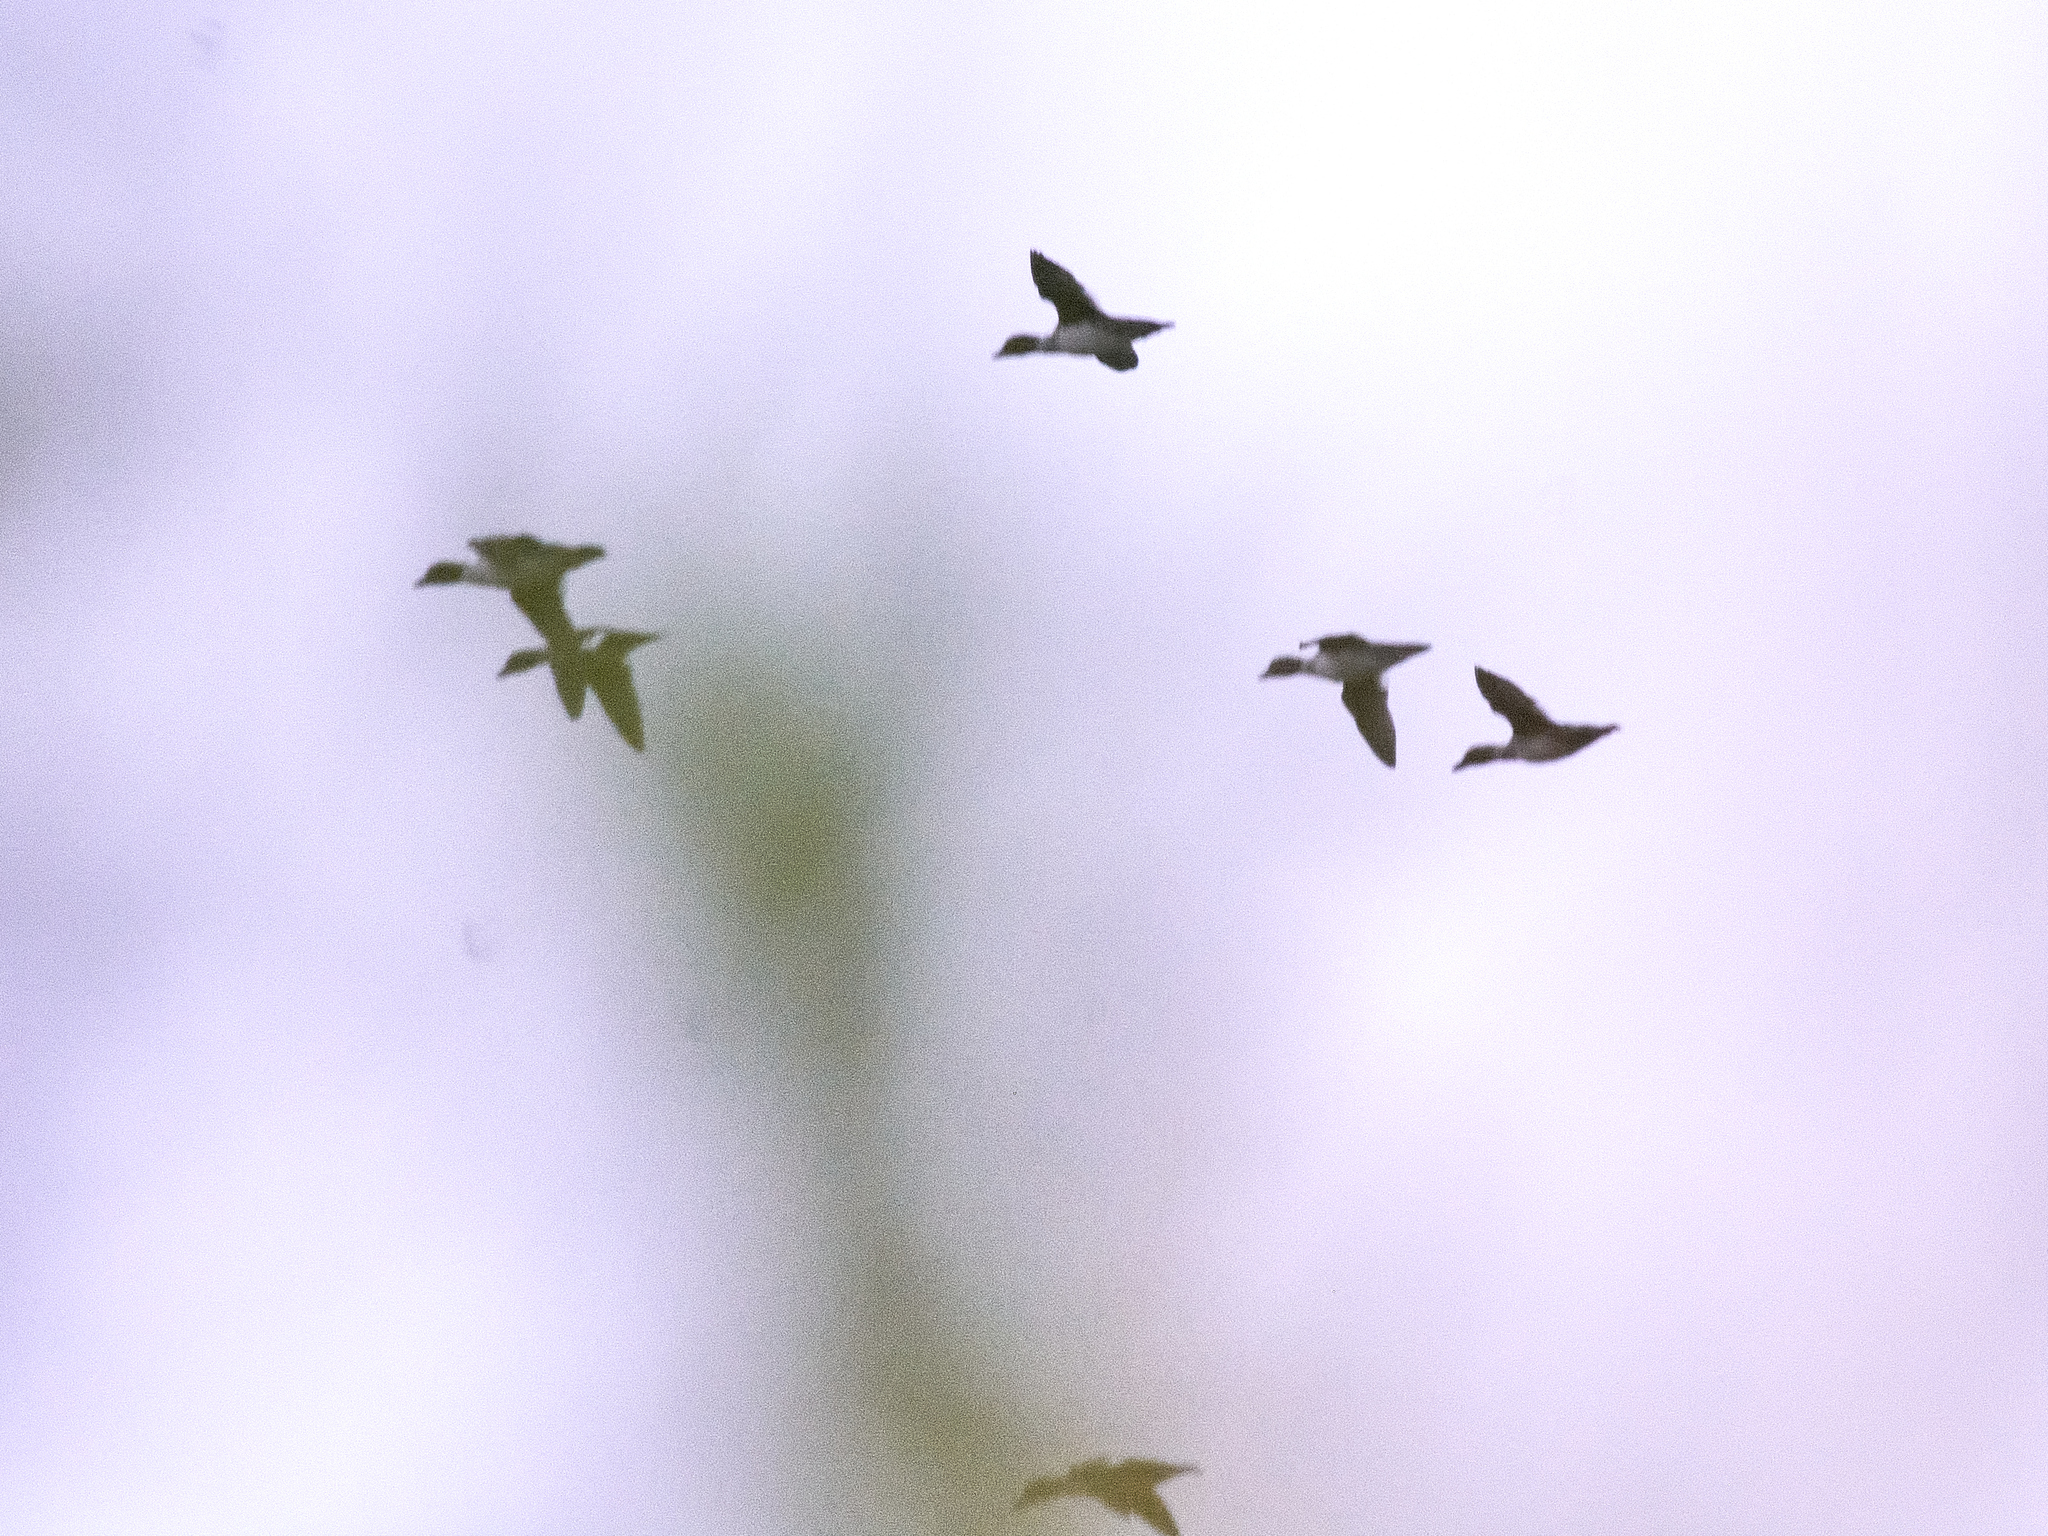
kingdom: Animalia
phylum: Chordata
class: Aves
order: Anseriformes
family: Anatidae
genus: Bucephala
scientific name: Bucephala clangula
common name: Common goldeneye
